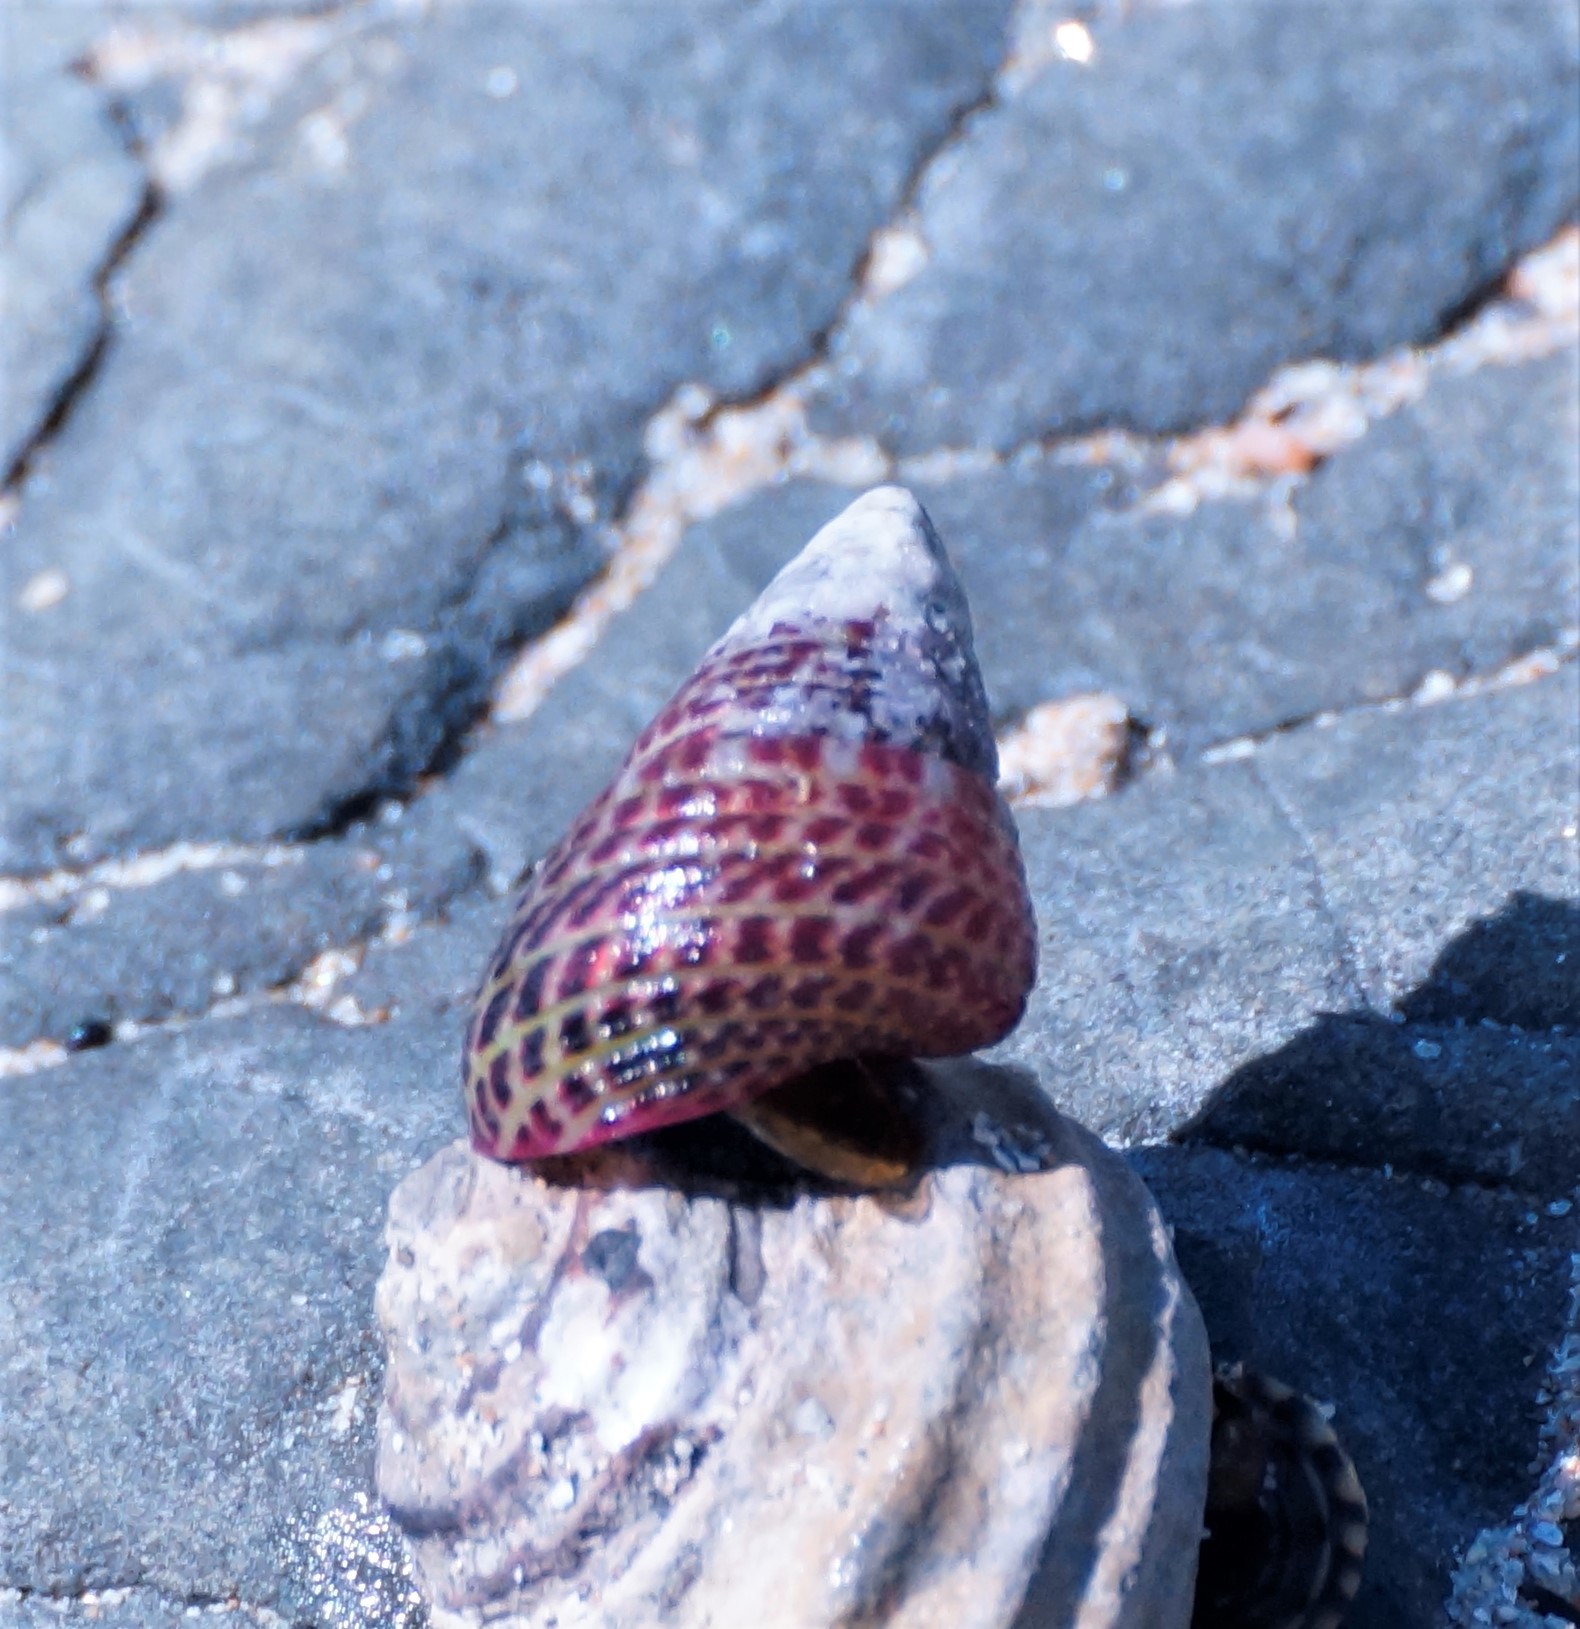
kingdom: Animalia
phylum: Mollusca
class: Gastropoda
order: Trochida
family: Trochidae
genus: Prothalotia
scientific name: Prothalotia pulcherrima
